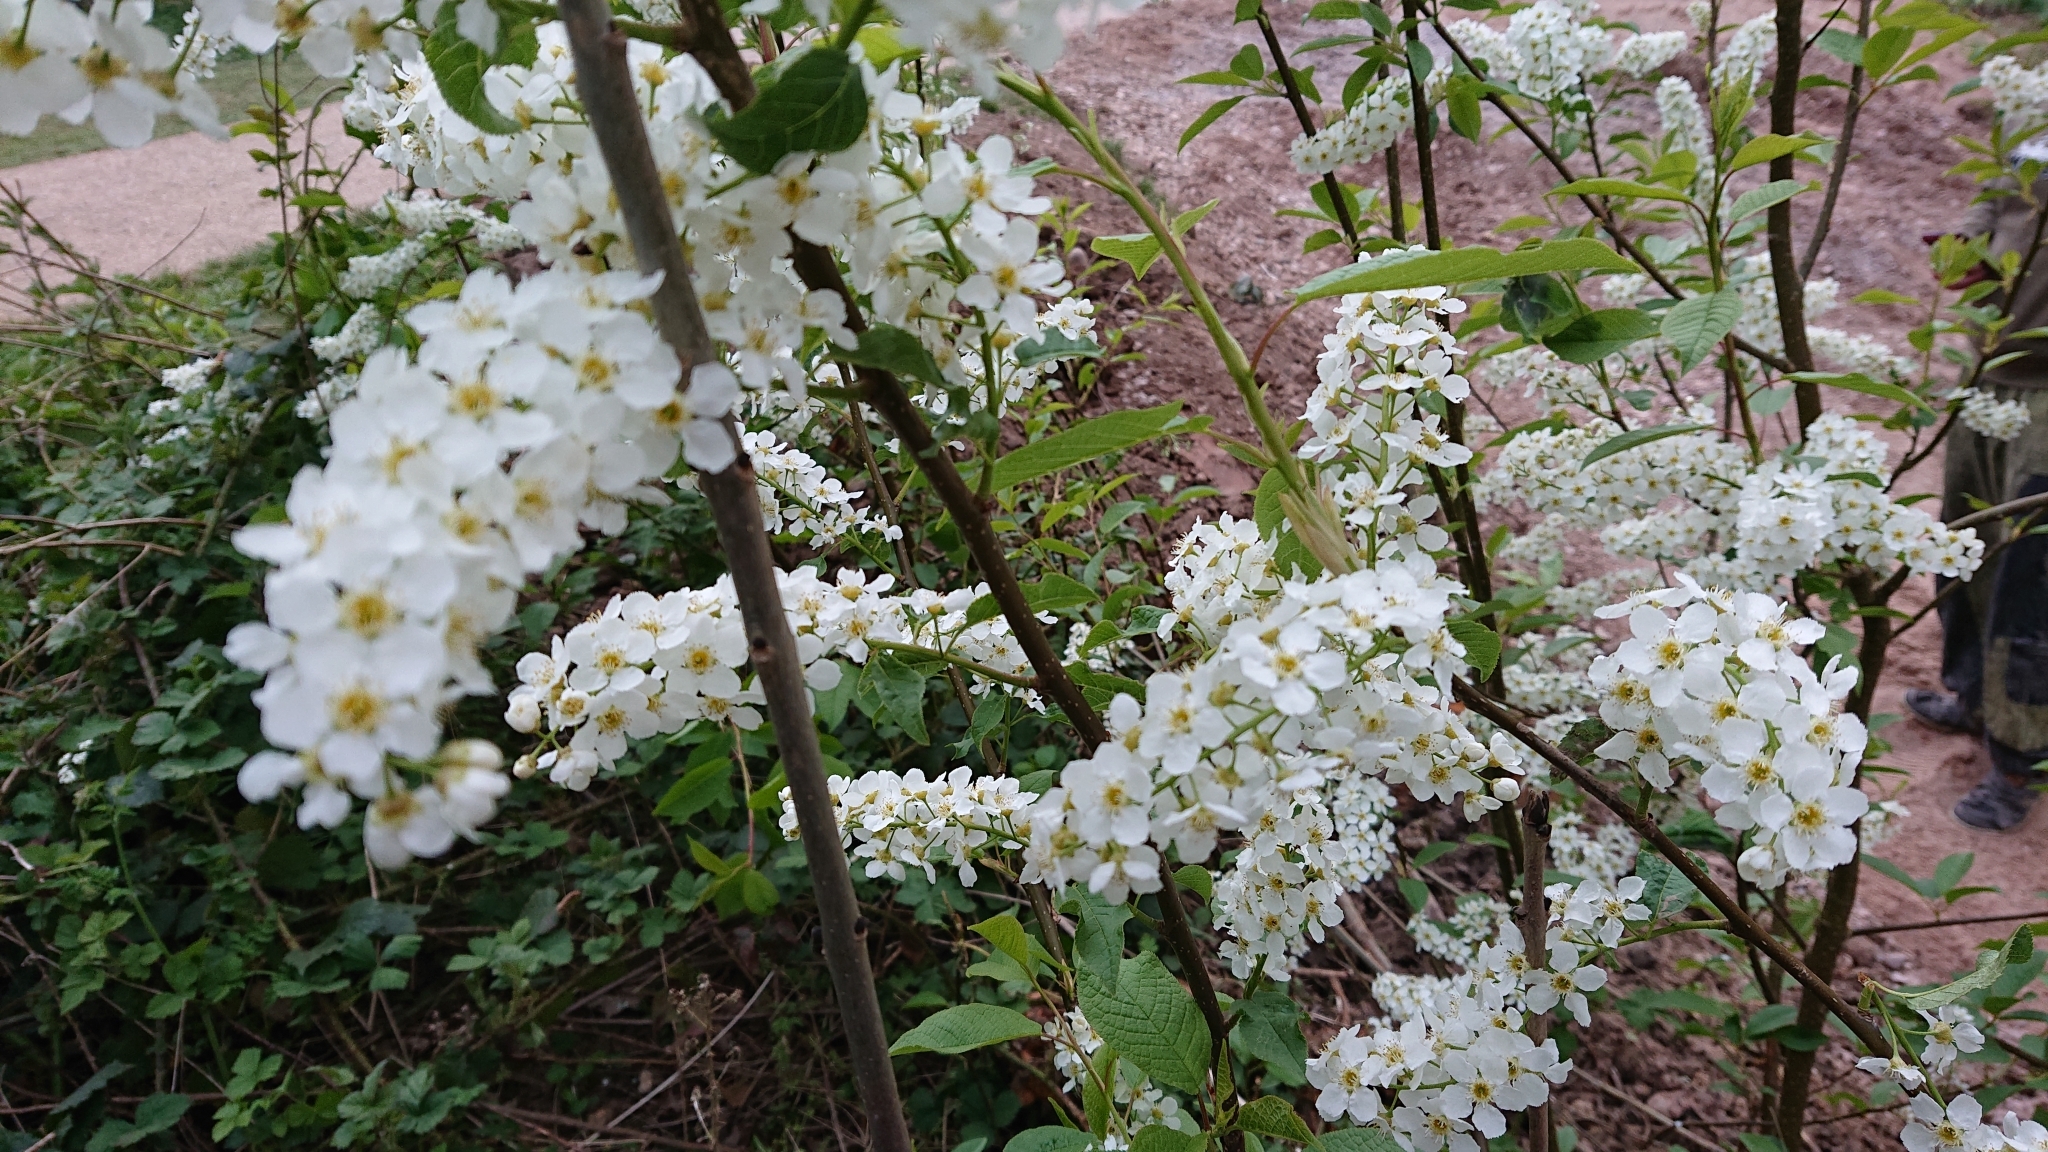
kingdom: Plantae
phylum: Tracheophyta
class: Magnoliopsida
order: Rosales
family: Rosaceae
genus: Prunus
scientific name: Prunus padus
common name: Bird cherry
